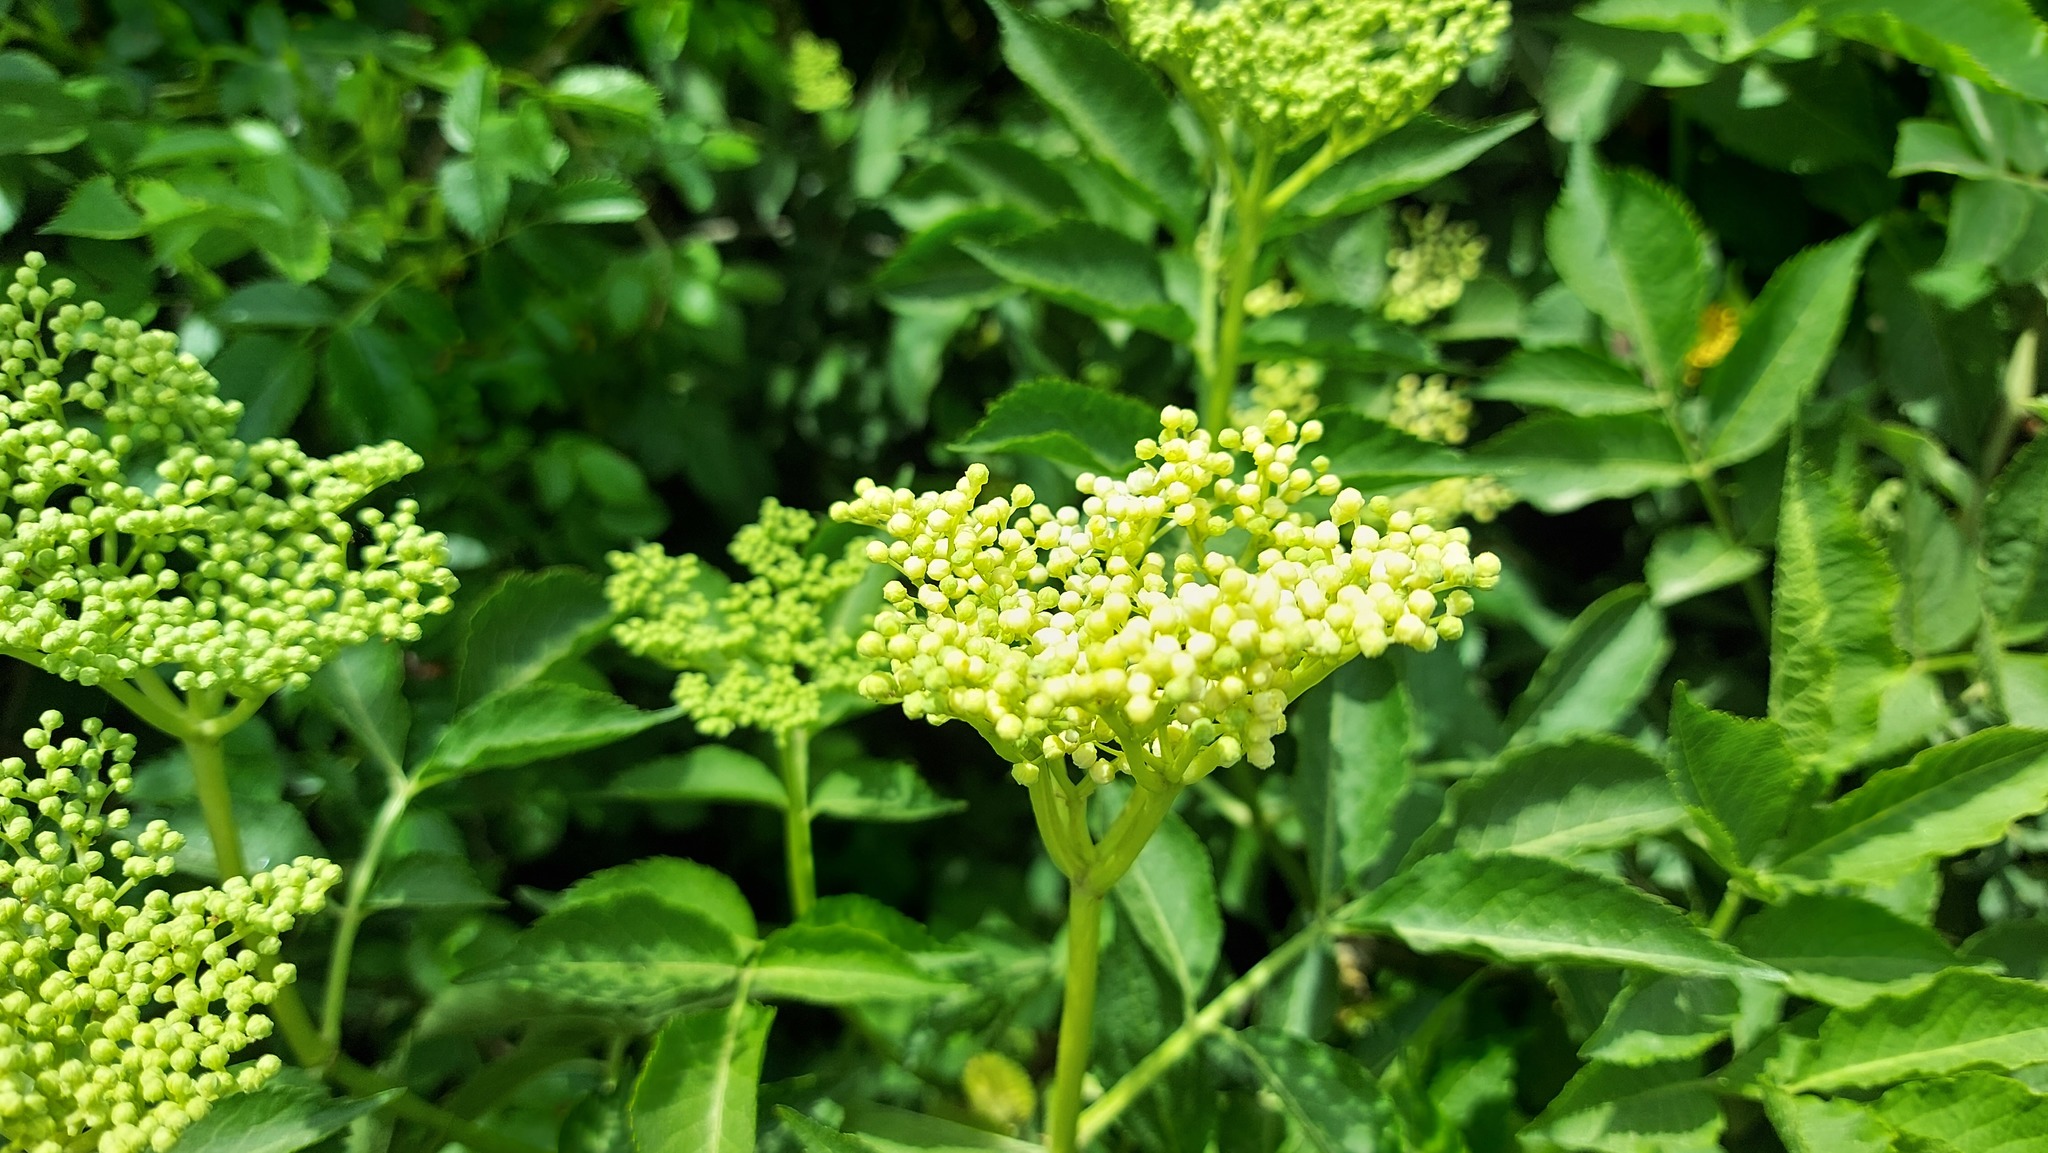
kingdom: Plantae
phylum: Tracheophyta
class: Magnoliopsida
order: Dipsacales
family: Viburnaceae
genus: Sambucus
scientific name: Sambucus nigra
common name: Elder
